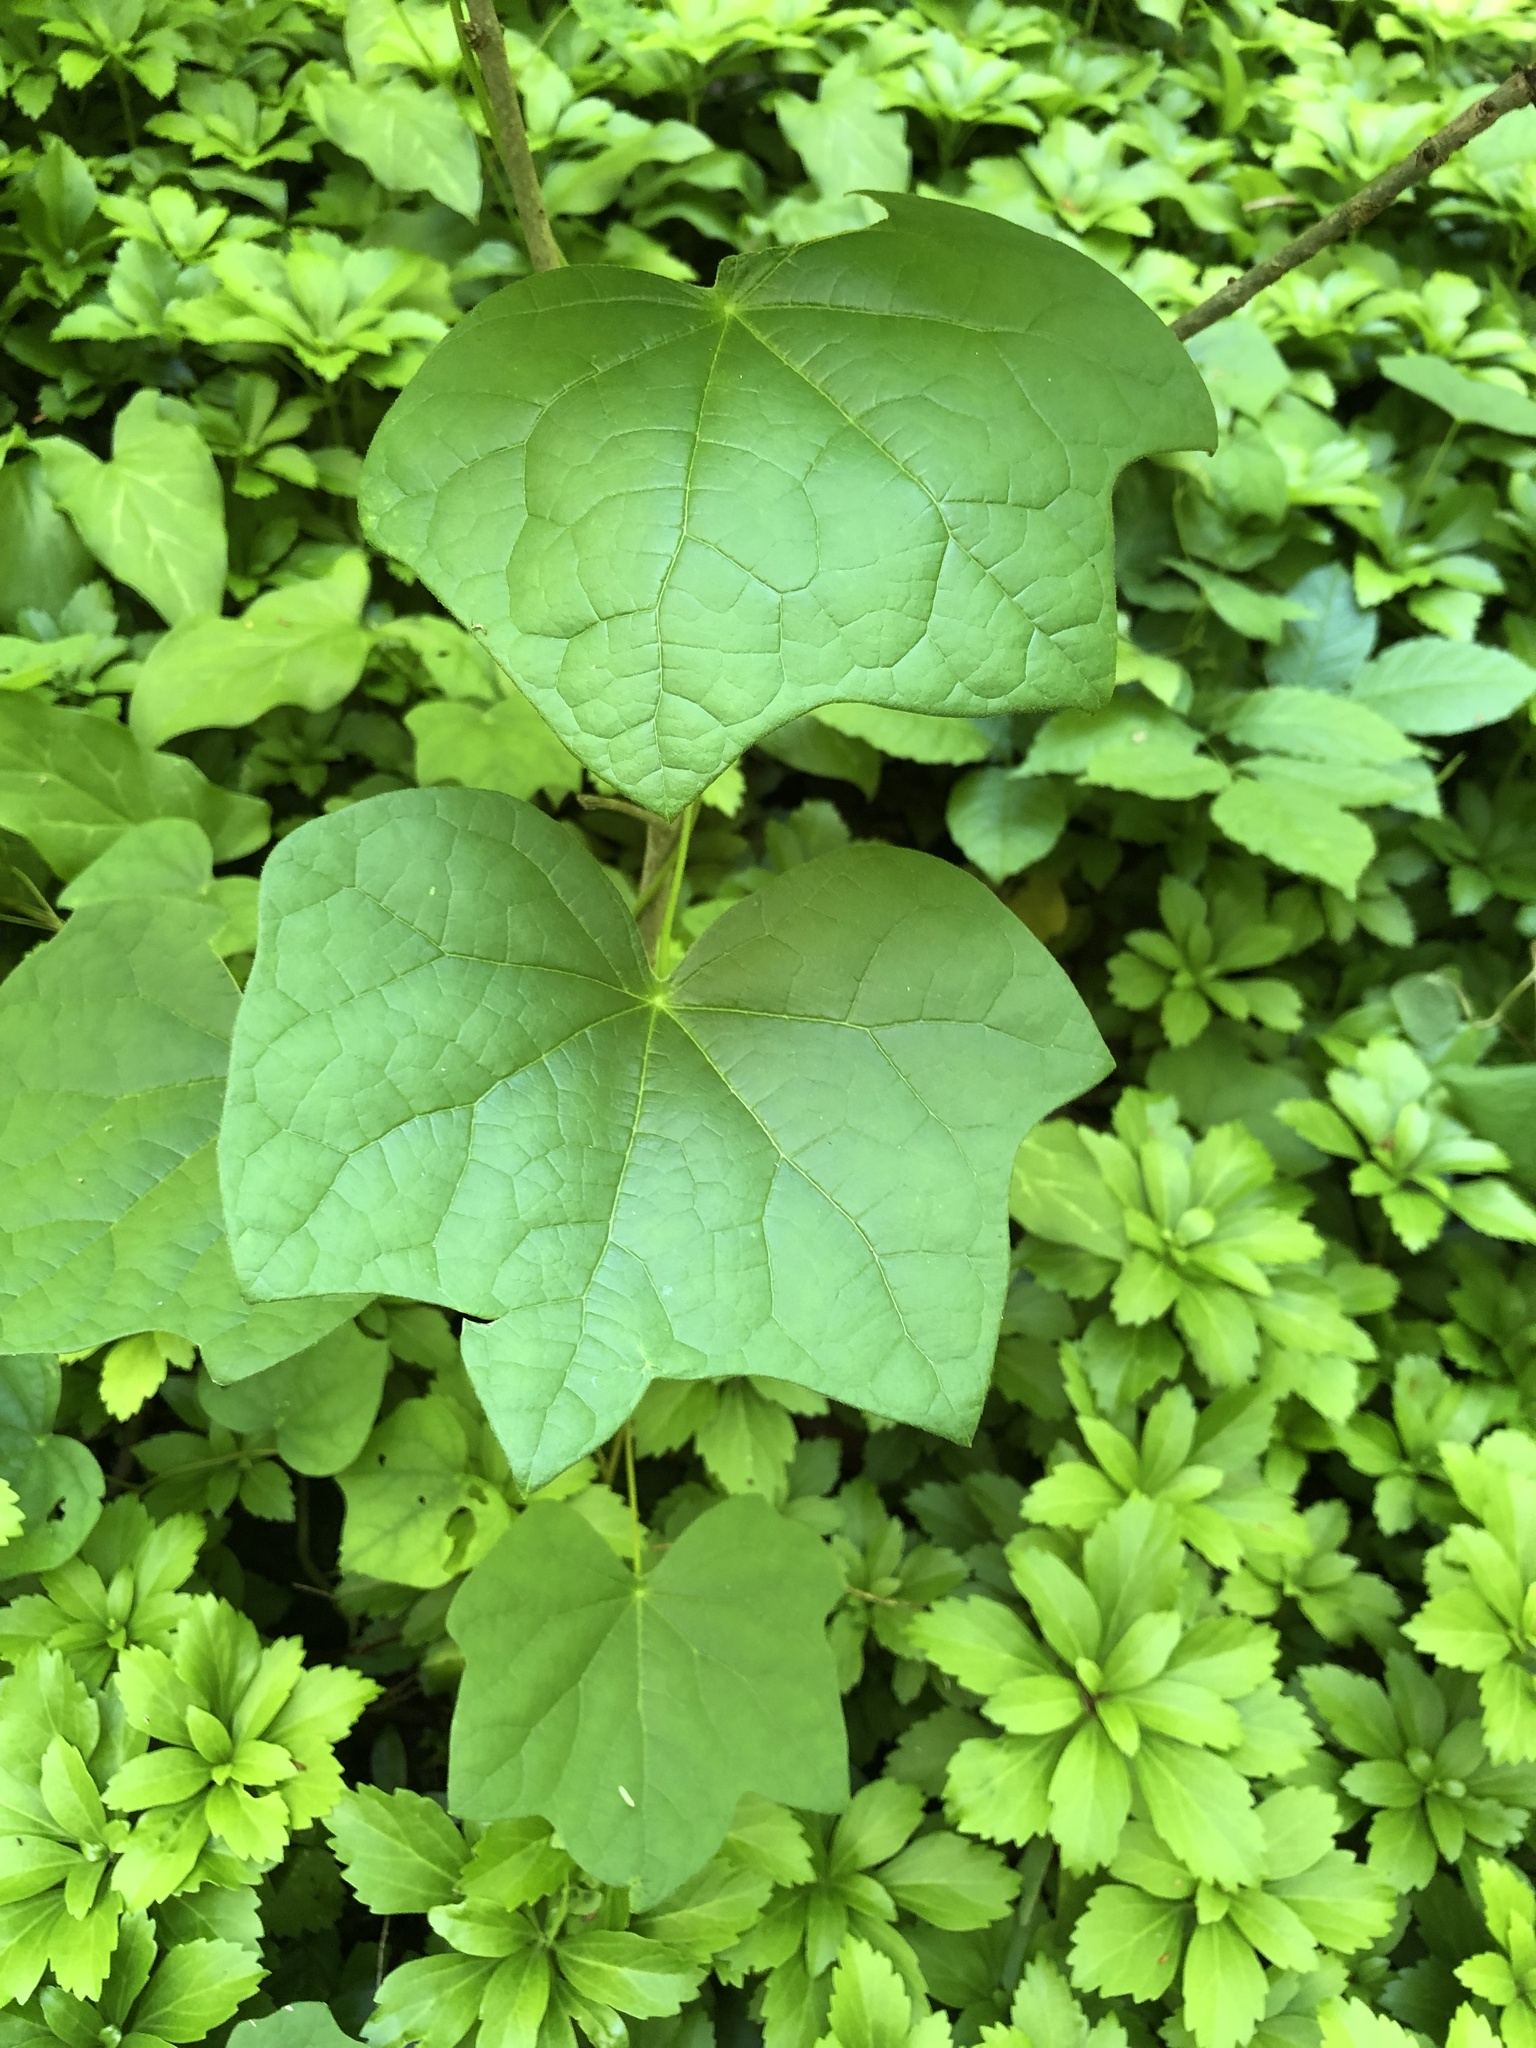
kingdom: Plantae
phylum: Tracheophyta
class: Magnoliopsida
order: Ranunculales
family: Menispermaceae
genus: Menispermum
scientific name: Menispermum canadense
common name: Moonseed
